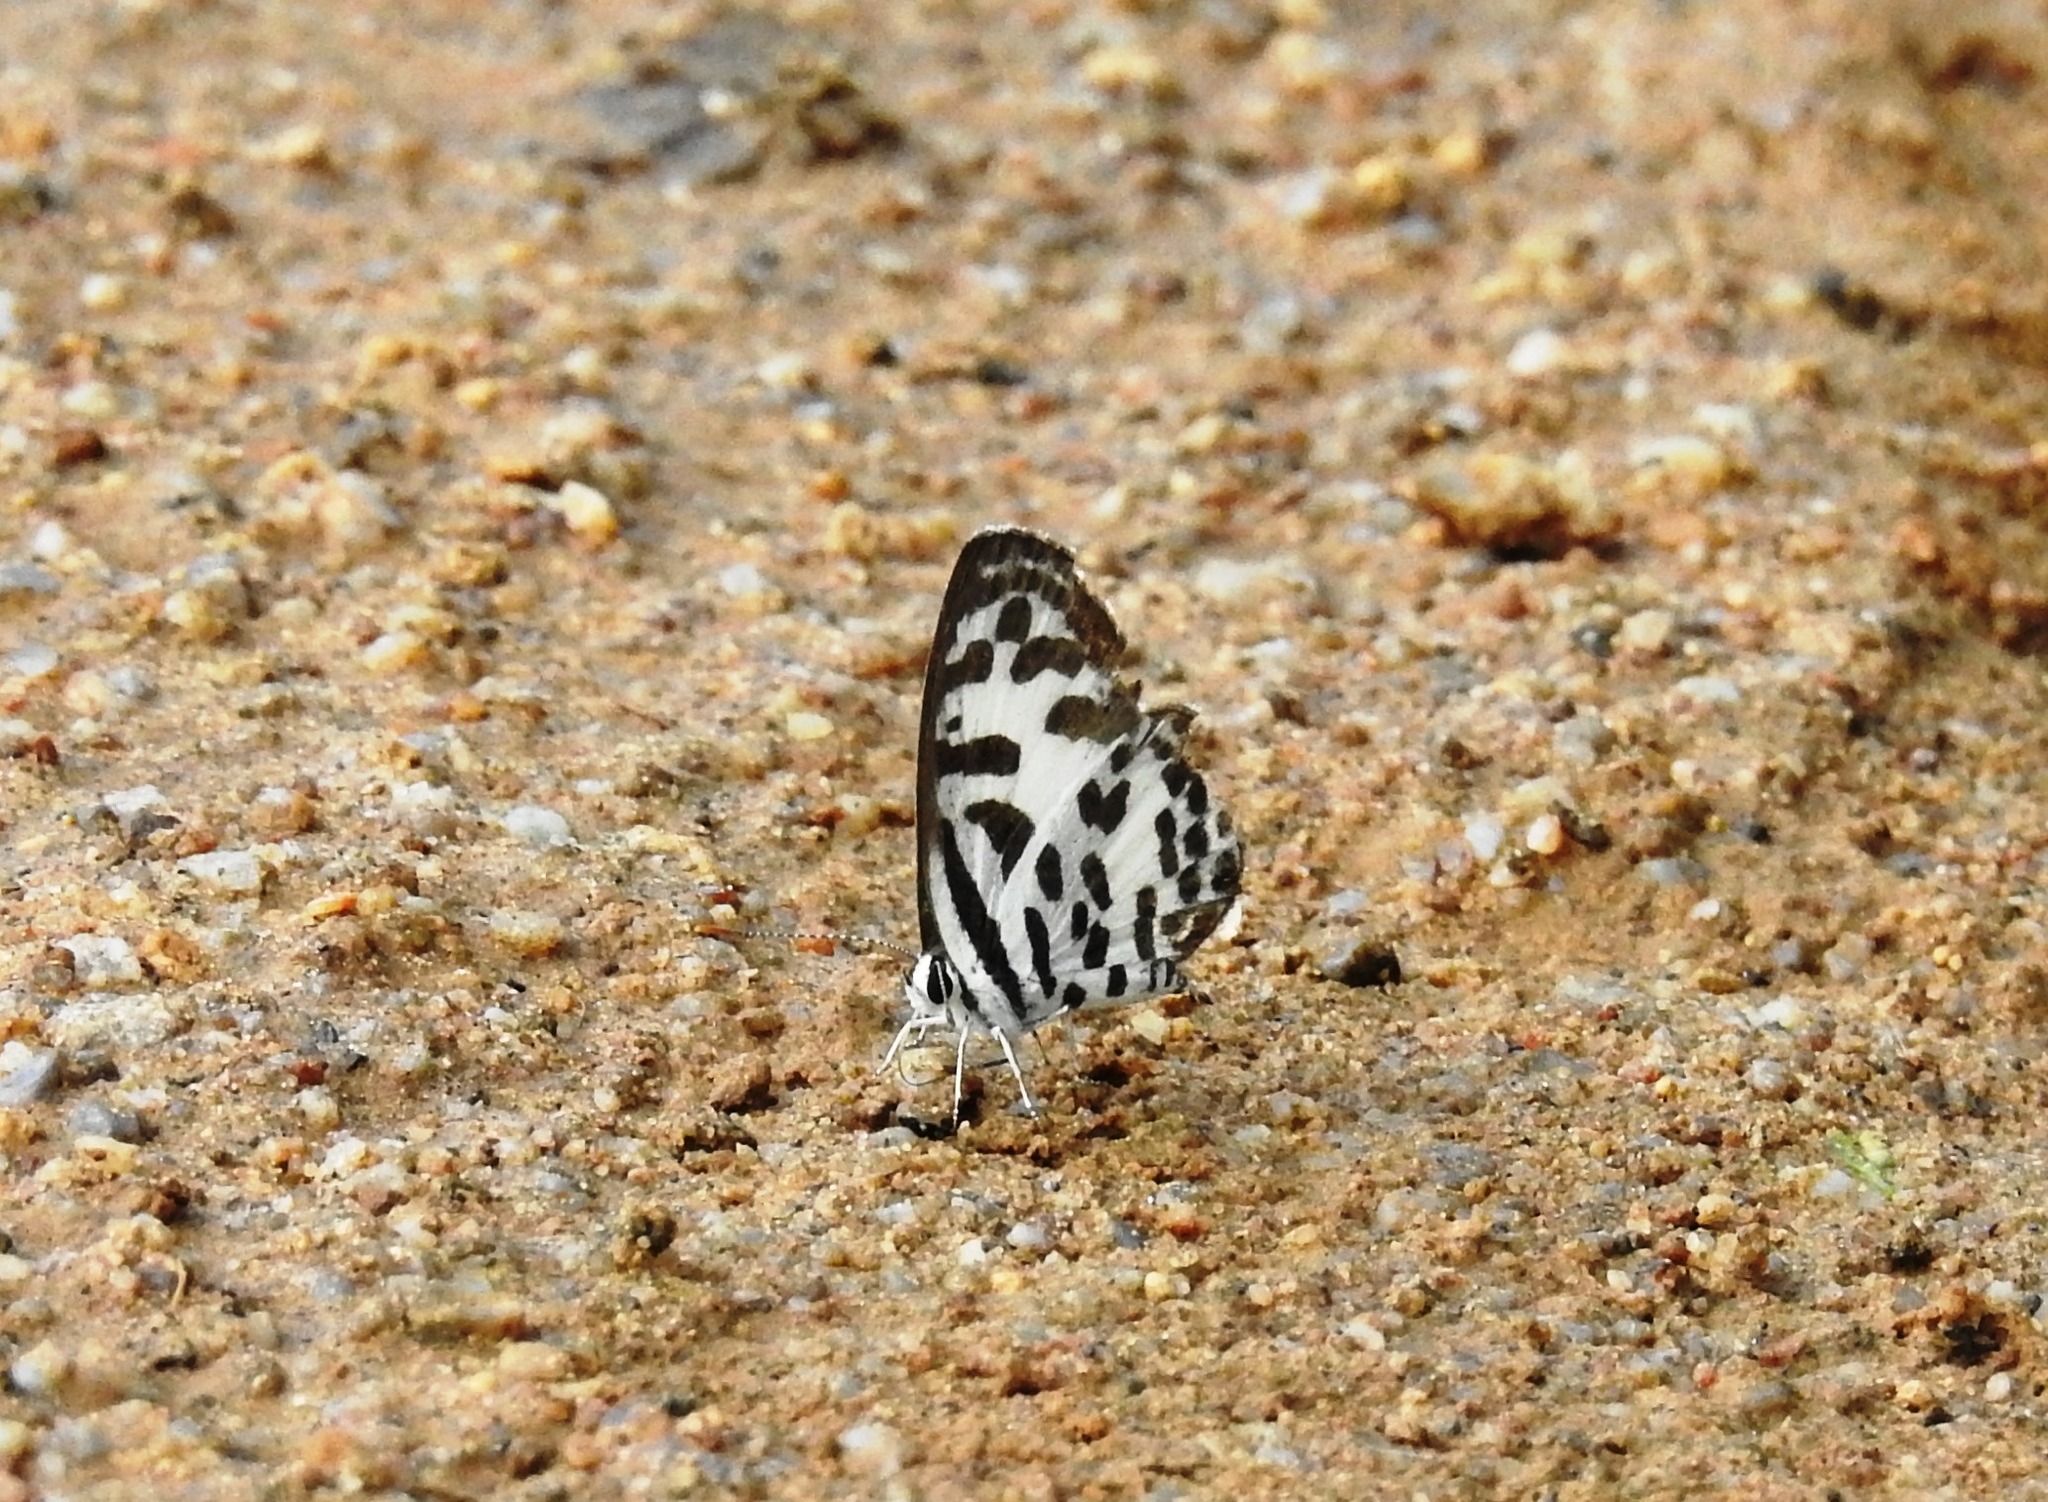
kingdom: Animalia
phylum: Arthropoda
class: Insecta
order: Lepidoptera
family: Lycaenidae
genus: Castalius
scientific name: Castalius rosimon
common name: Common pierrot
